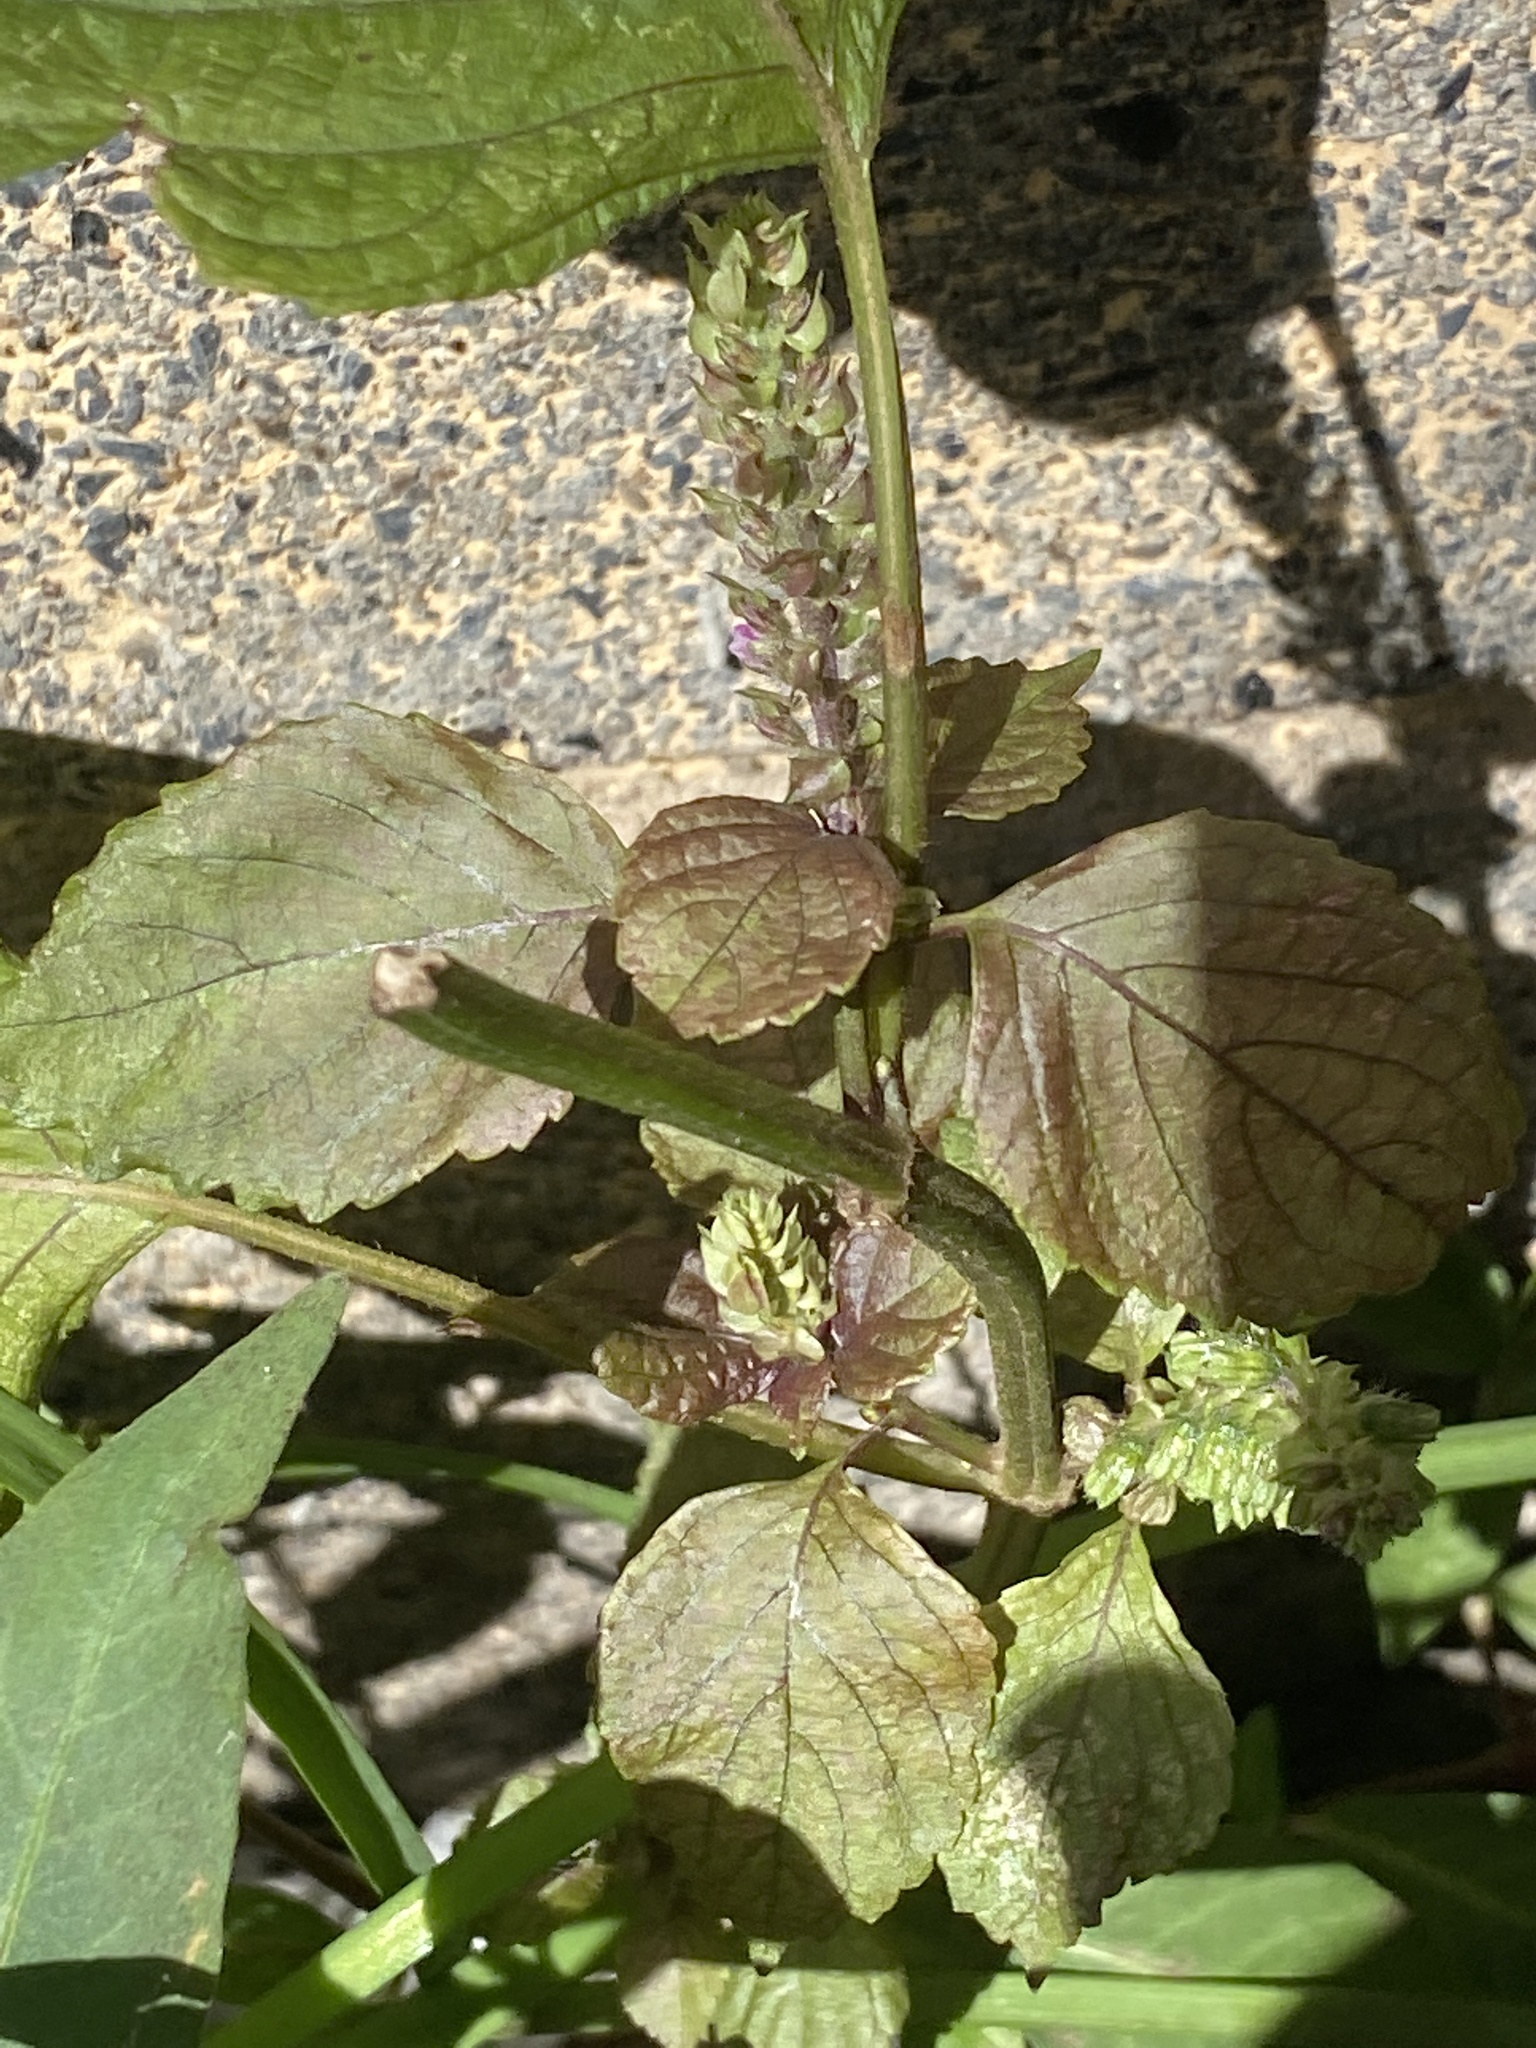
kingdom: Plantae
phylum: Tracheophyta
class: Magnoliopsida
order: Lamiales
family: Lamiaceae
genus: Perilla
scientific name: Perilla frutescens
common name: Perilla
